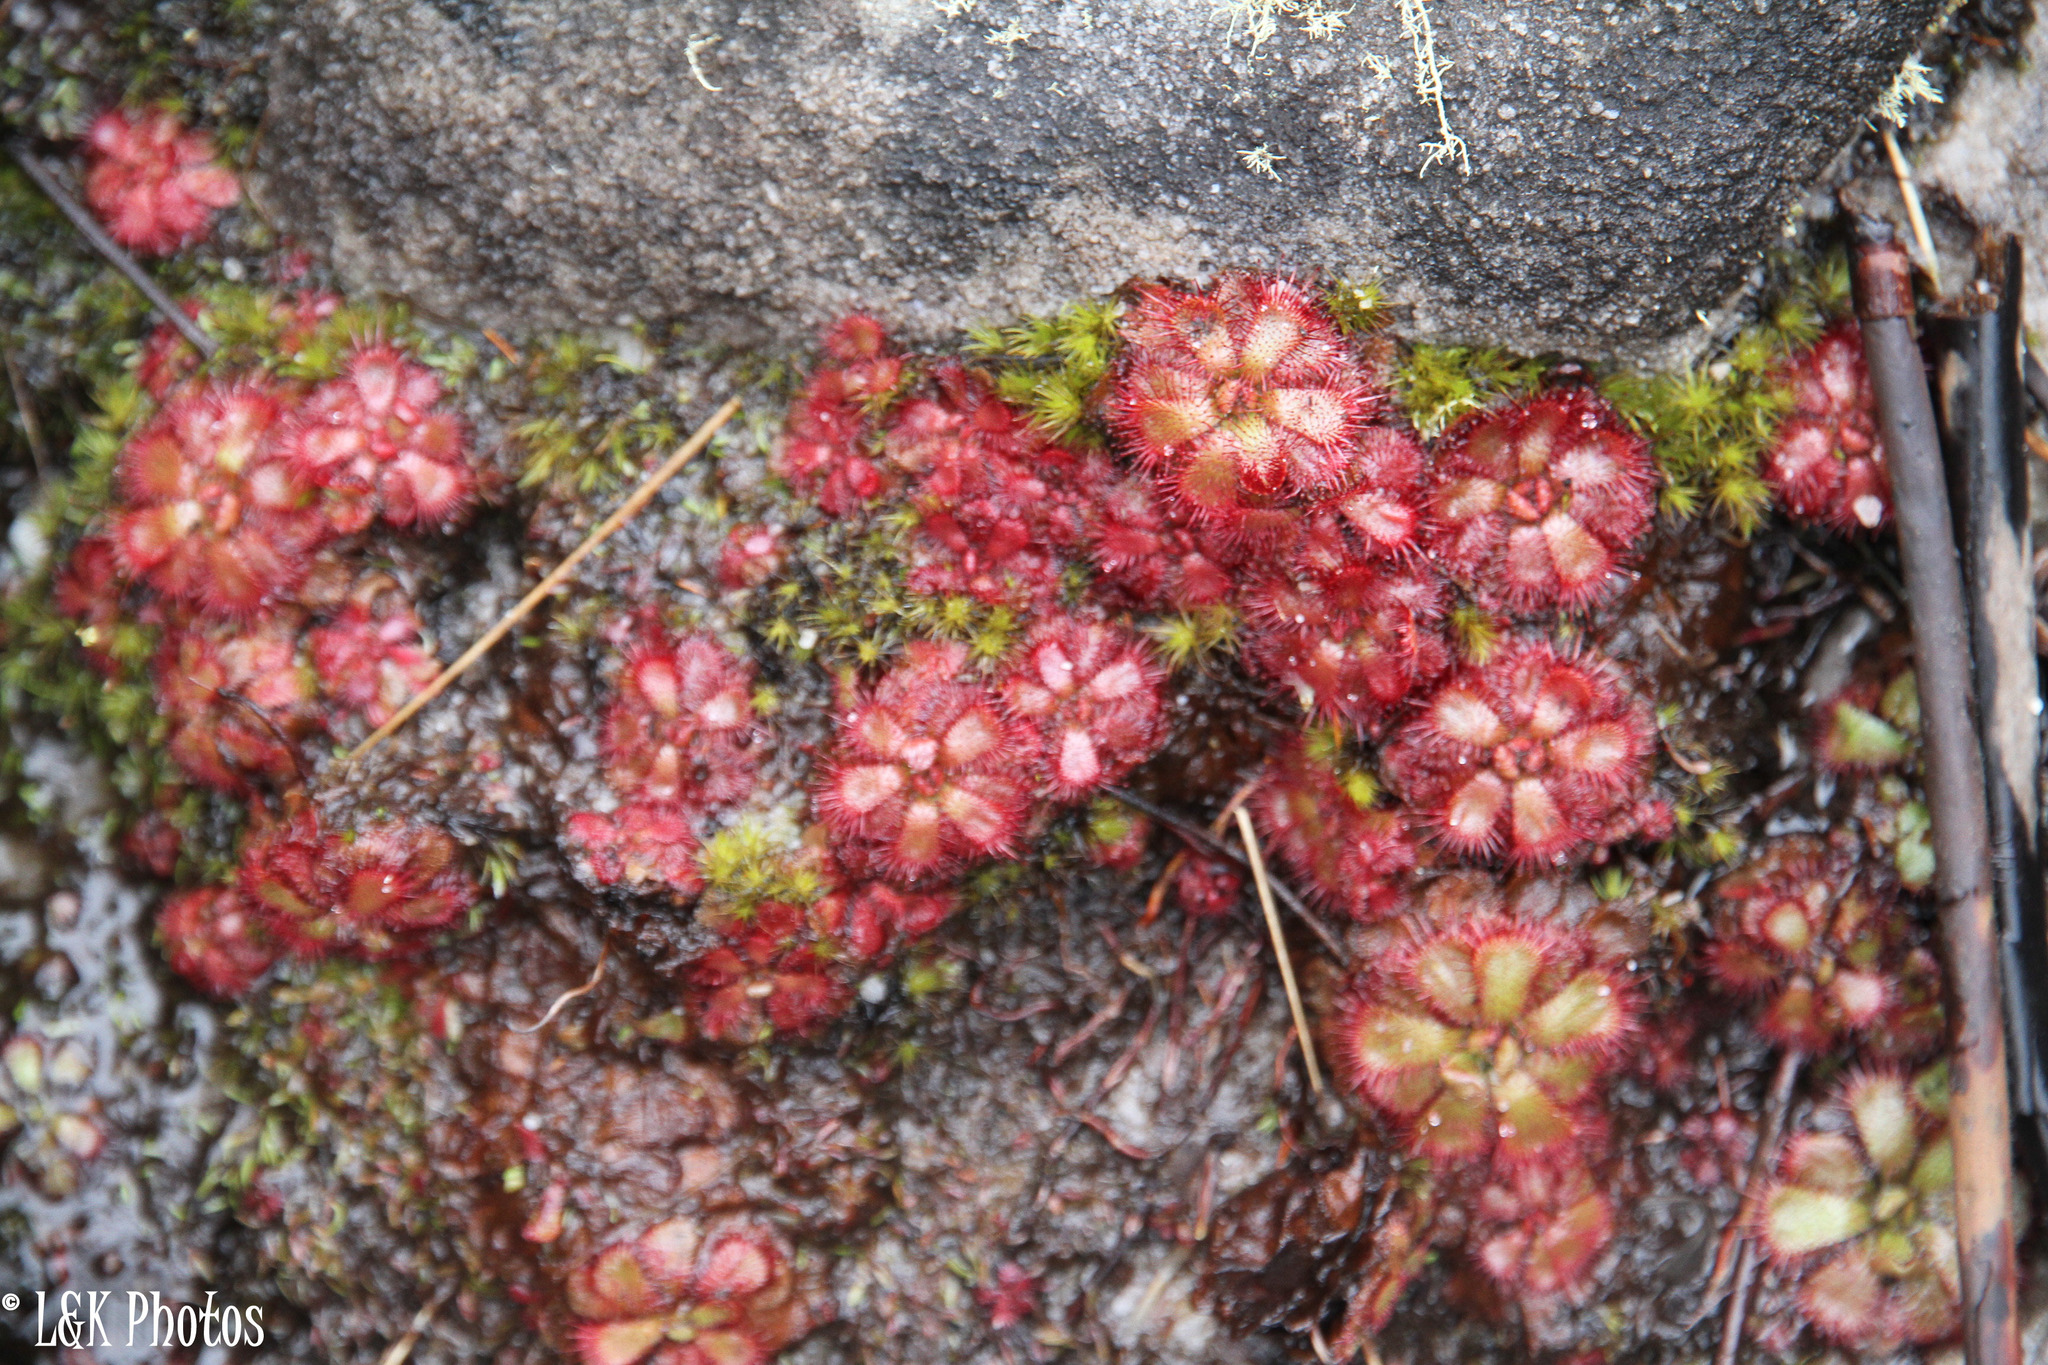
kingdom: Plantae
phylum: Tracheophyta
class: Magnoliopsida
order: Caryophyllales
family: Droseraceae
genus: Drosera
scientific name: Drosera cuneifolia
